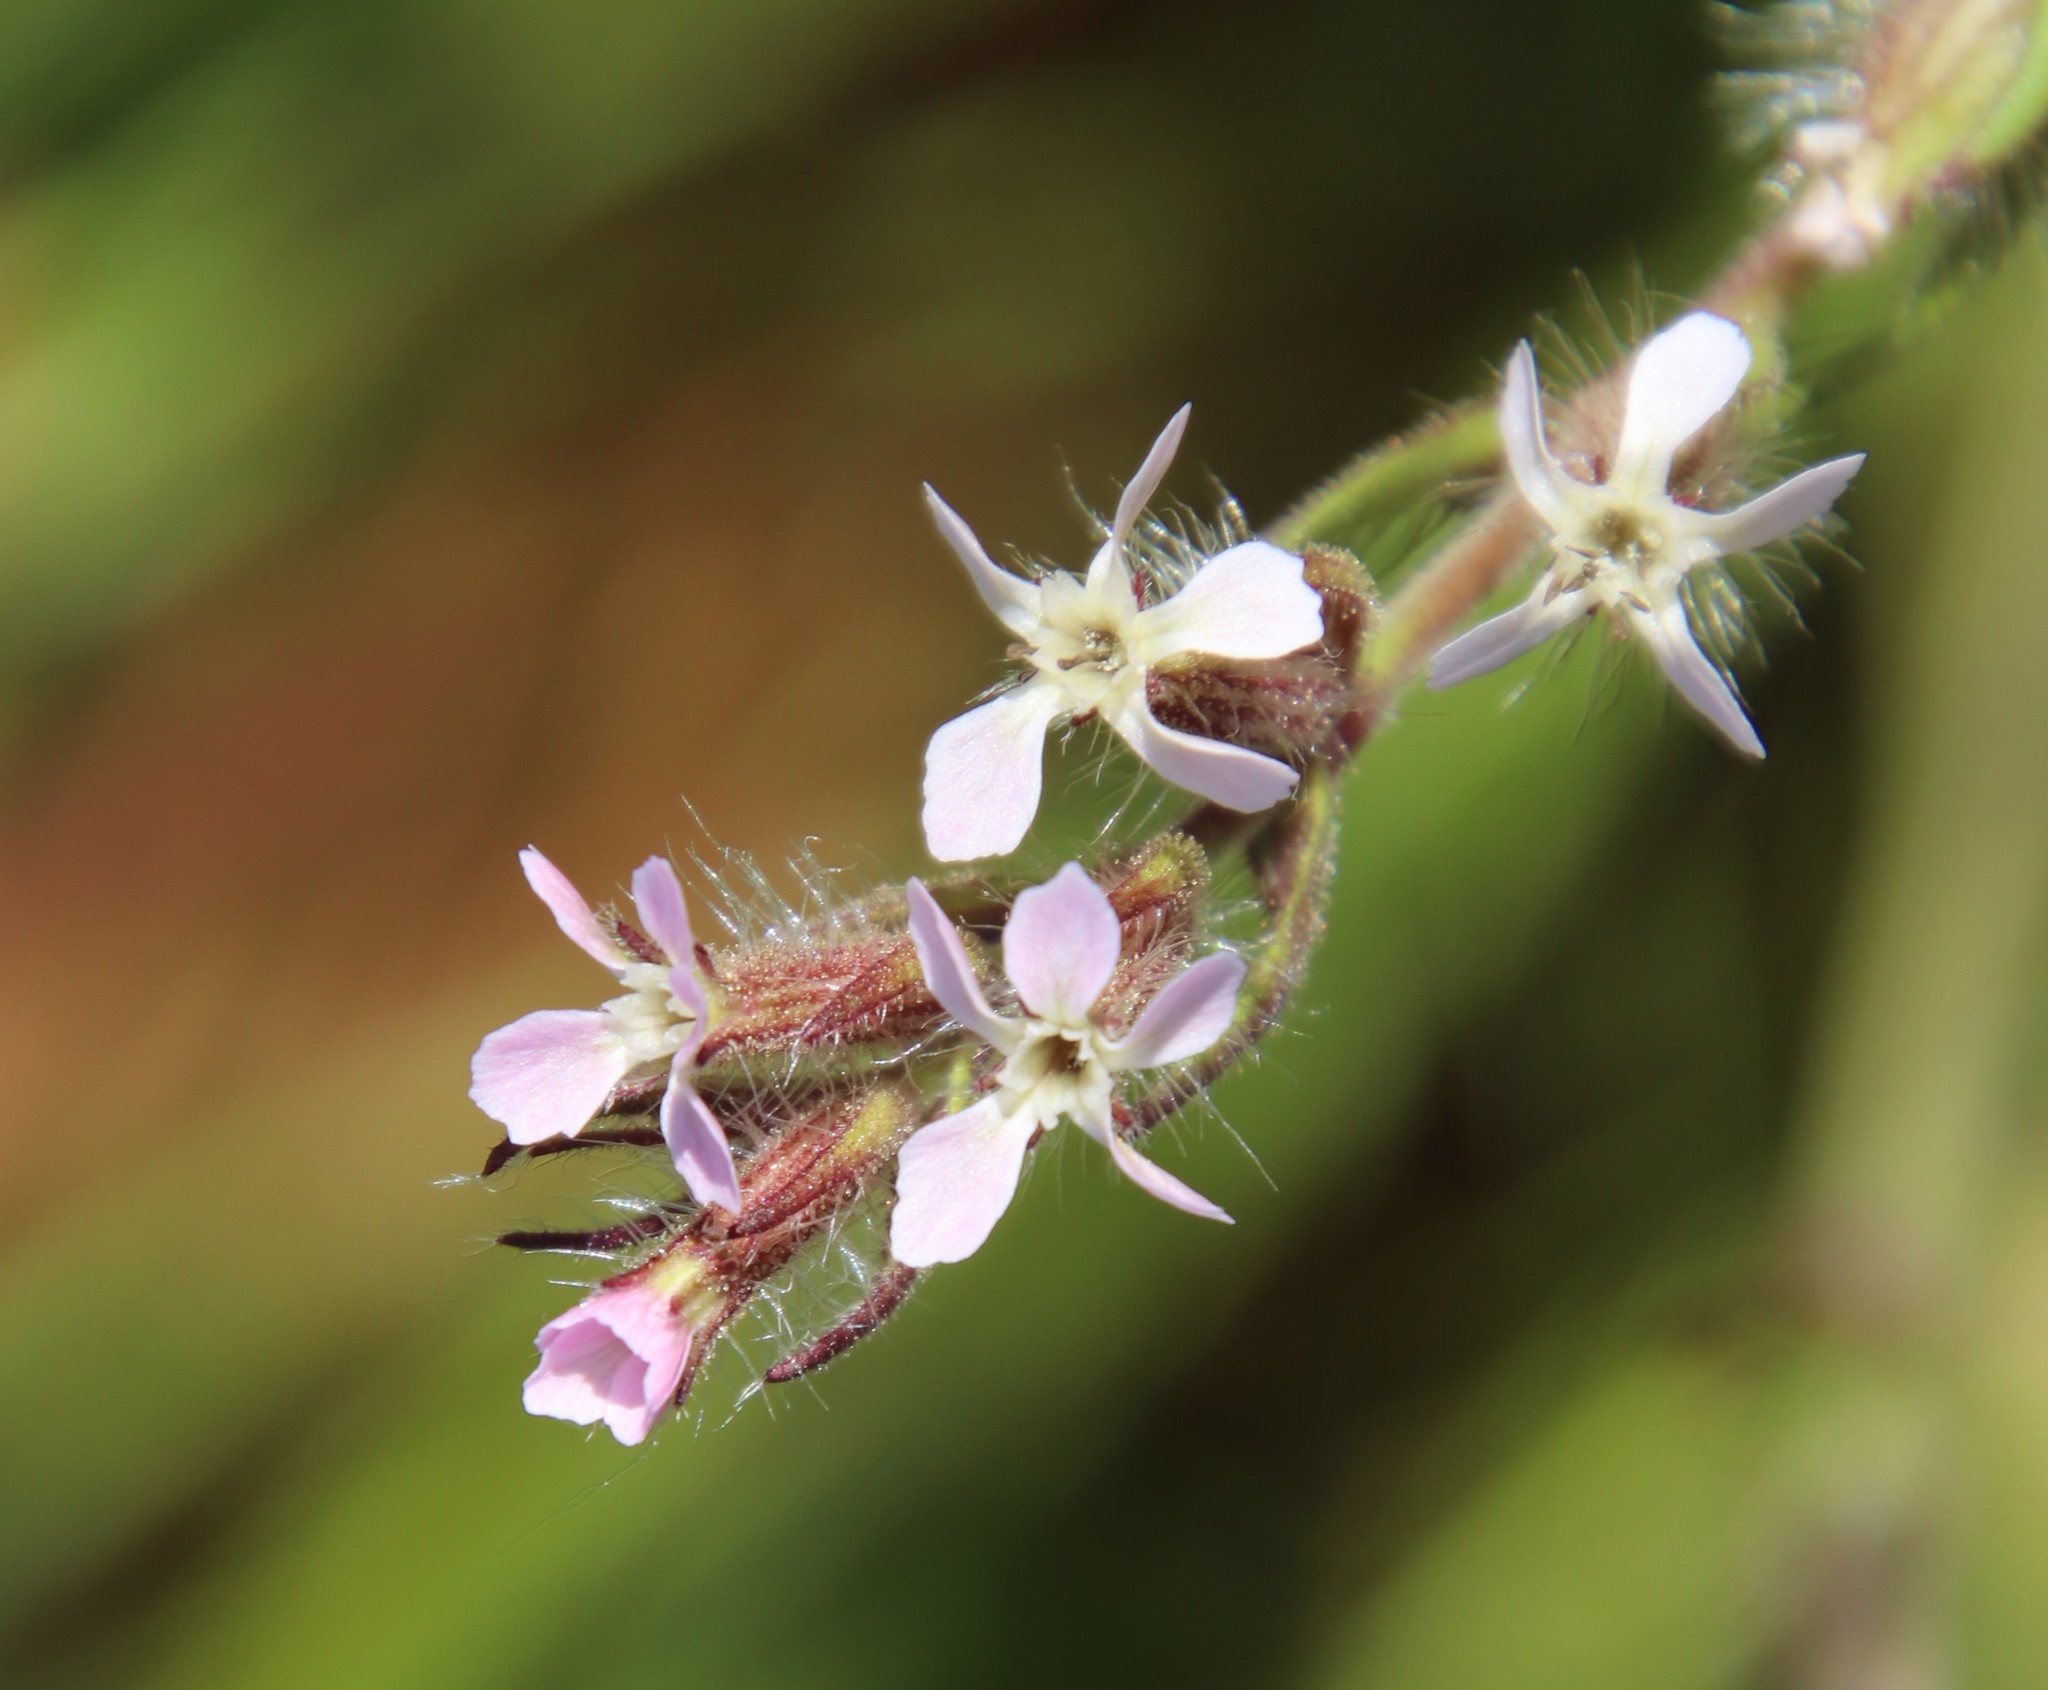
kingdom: Plantae
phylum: Tracheophyta
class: Magnoliopsida
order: Caryophyllales
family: Caryophyllaceae
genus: Silene
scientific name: Silene gallica
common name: Small-flowered catchfly
